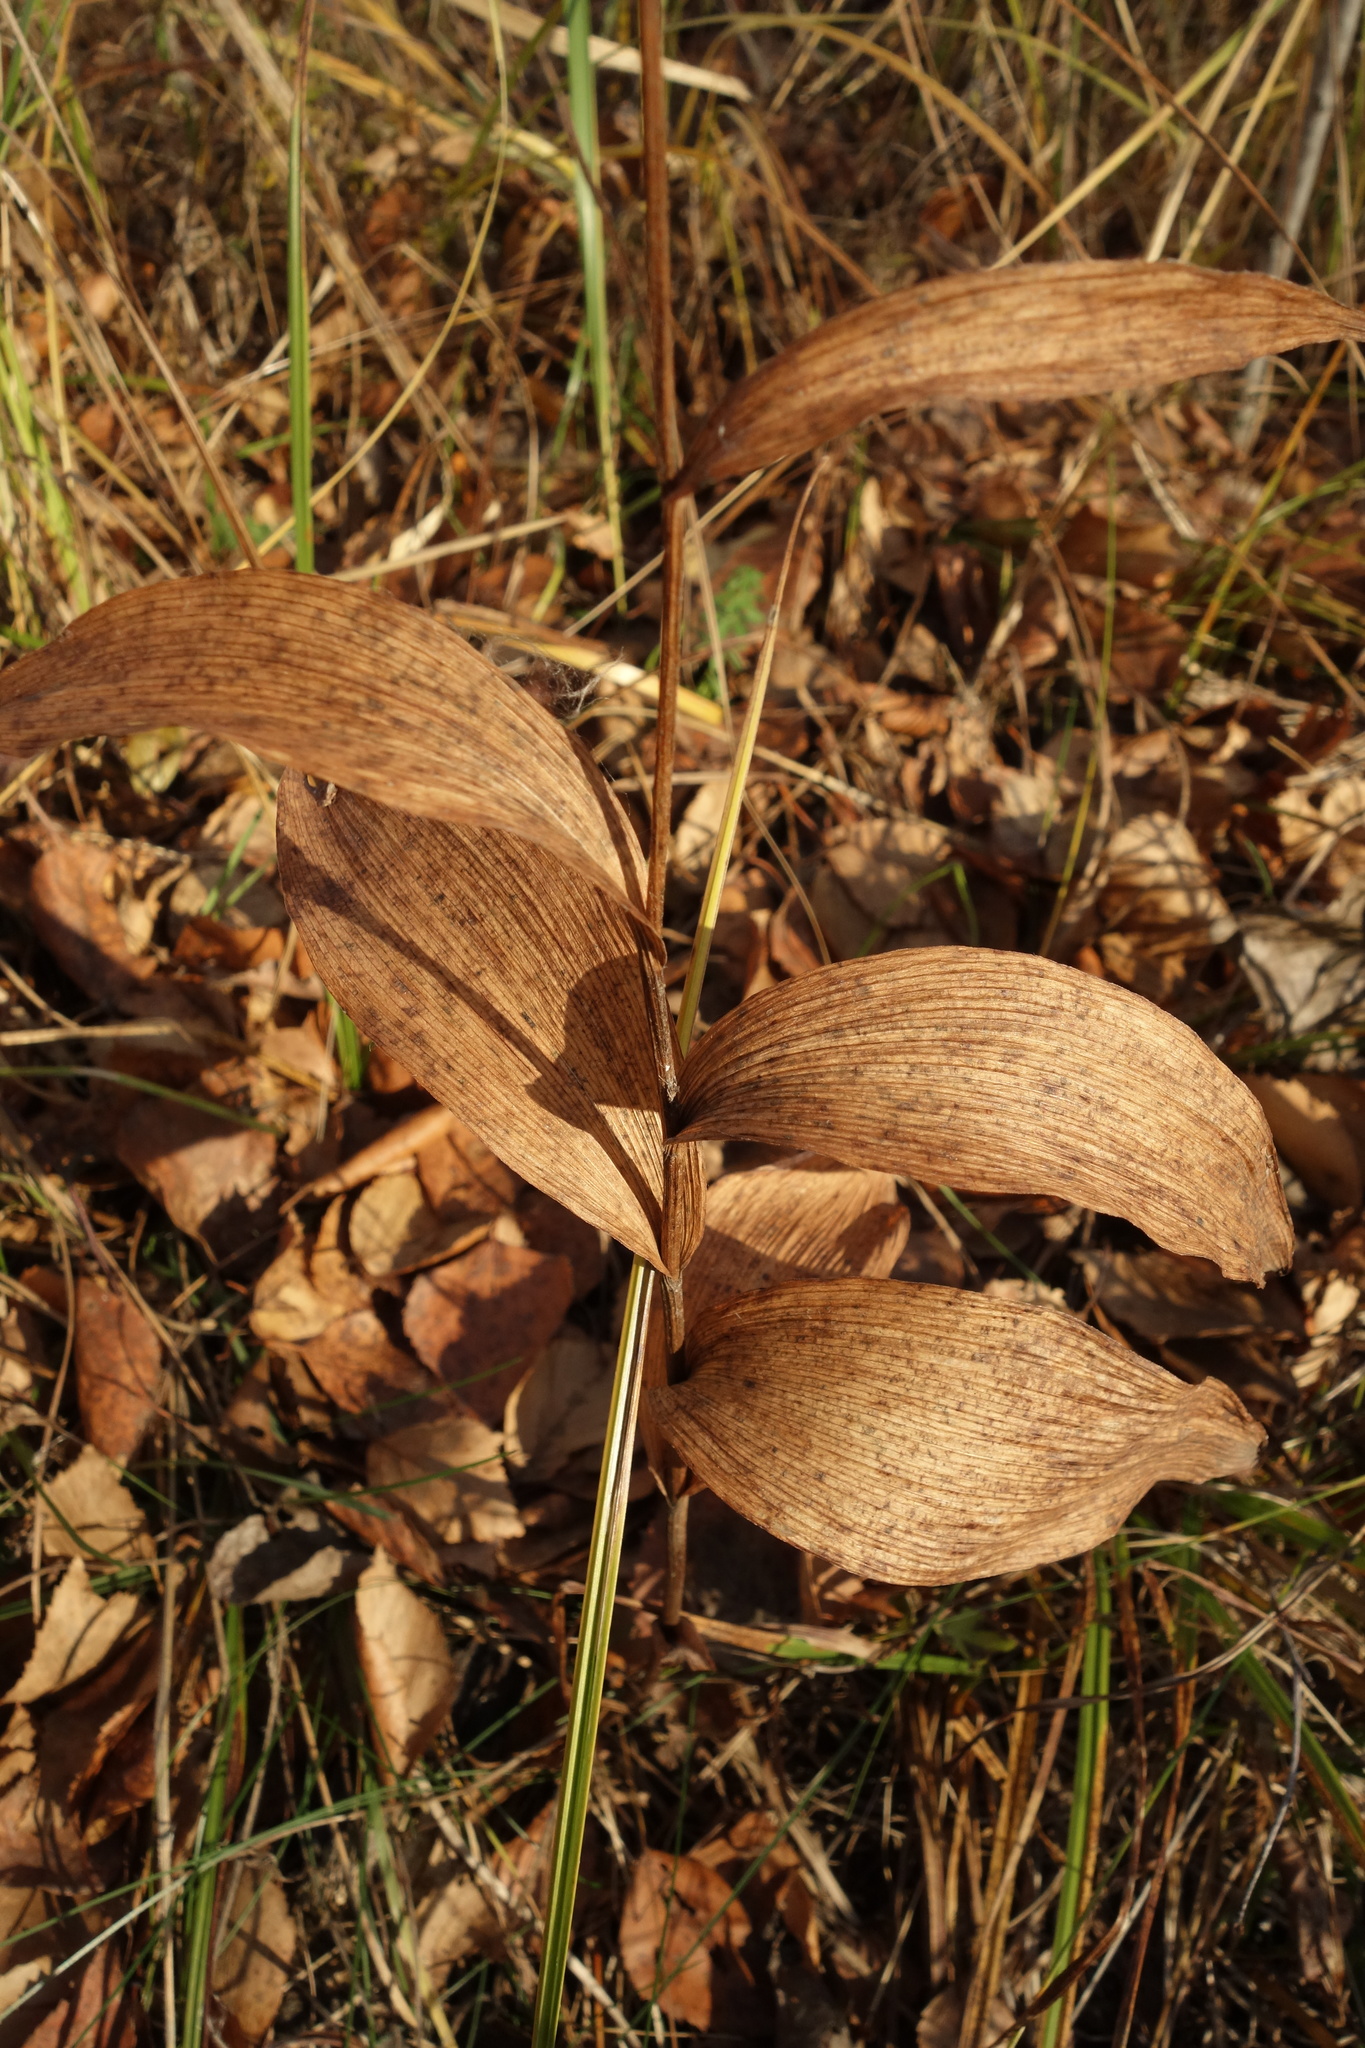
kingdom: Plantae
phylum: Tracheophyta
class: Liliopsida
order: Asparagales
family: Orchidaceae
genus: Epipactis
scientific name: Epipactis helleborine
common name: Broad-leaved helleborine
